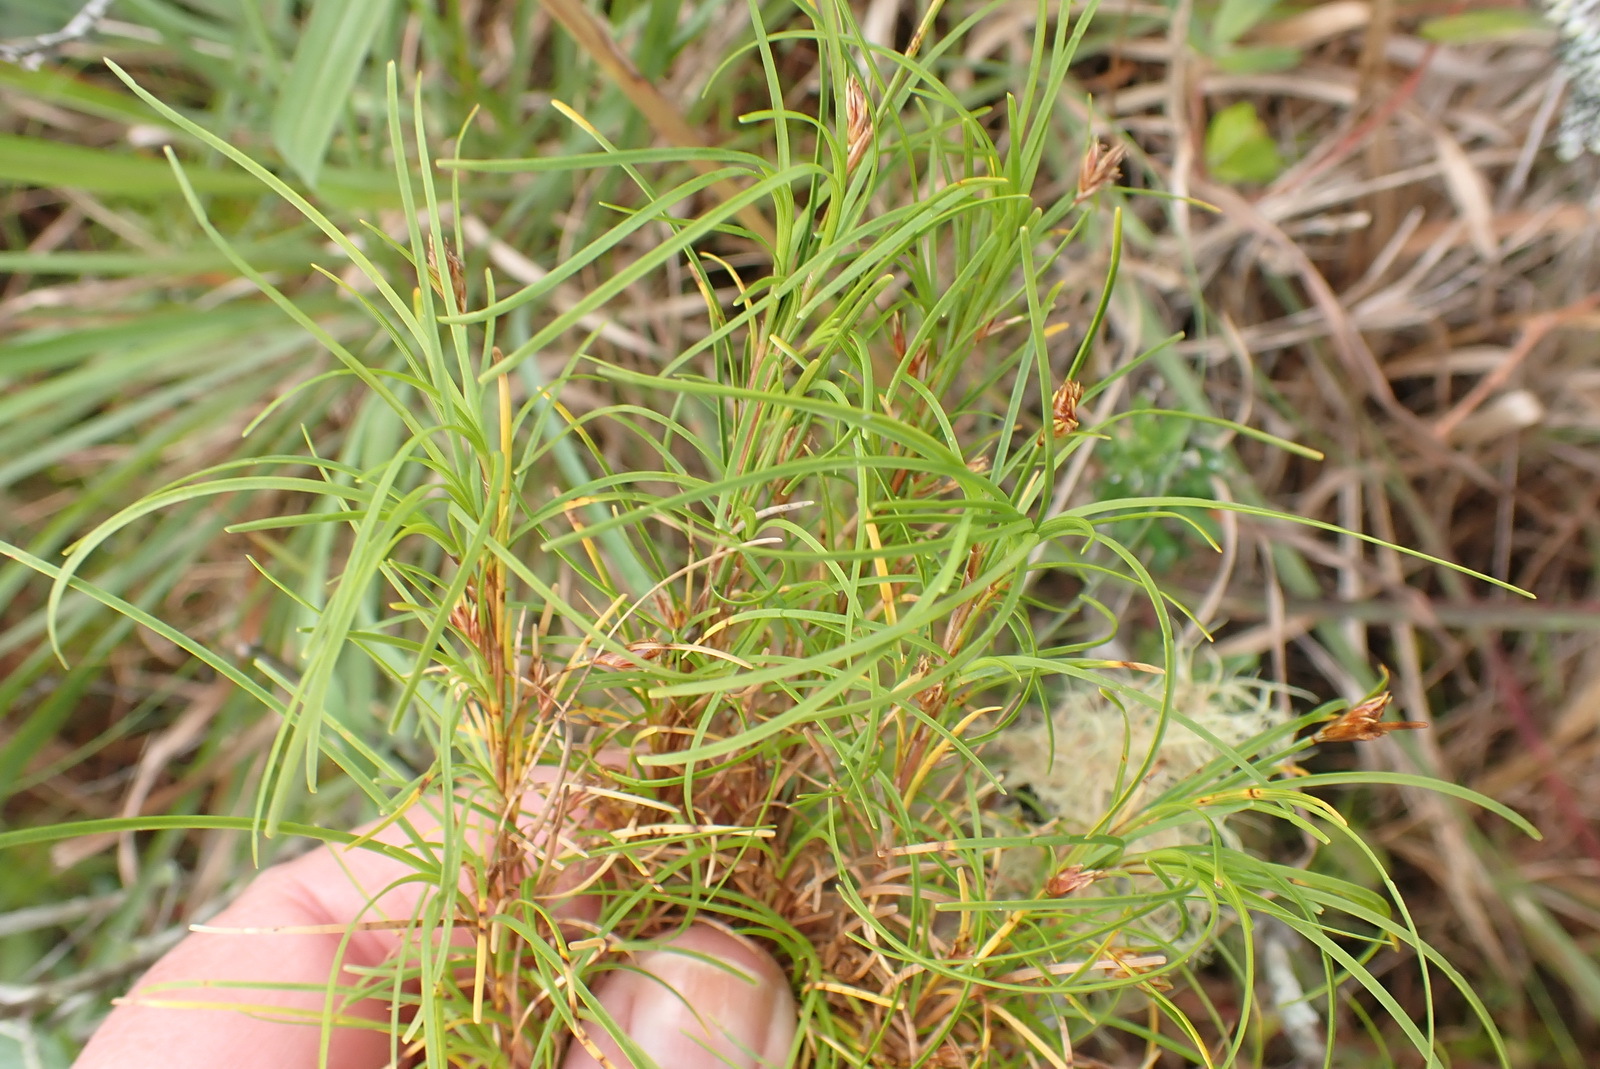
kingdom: Plantae
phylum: Tracheophyta
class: Liliopsida
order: Poales
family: Cyperaceae
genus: Ficinia
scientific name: Ficinia ramosissima
